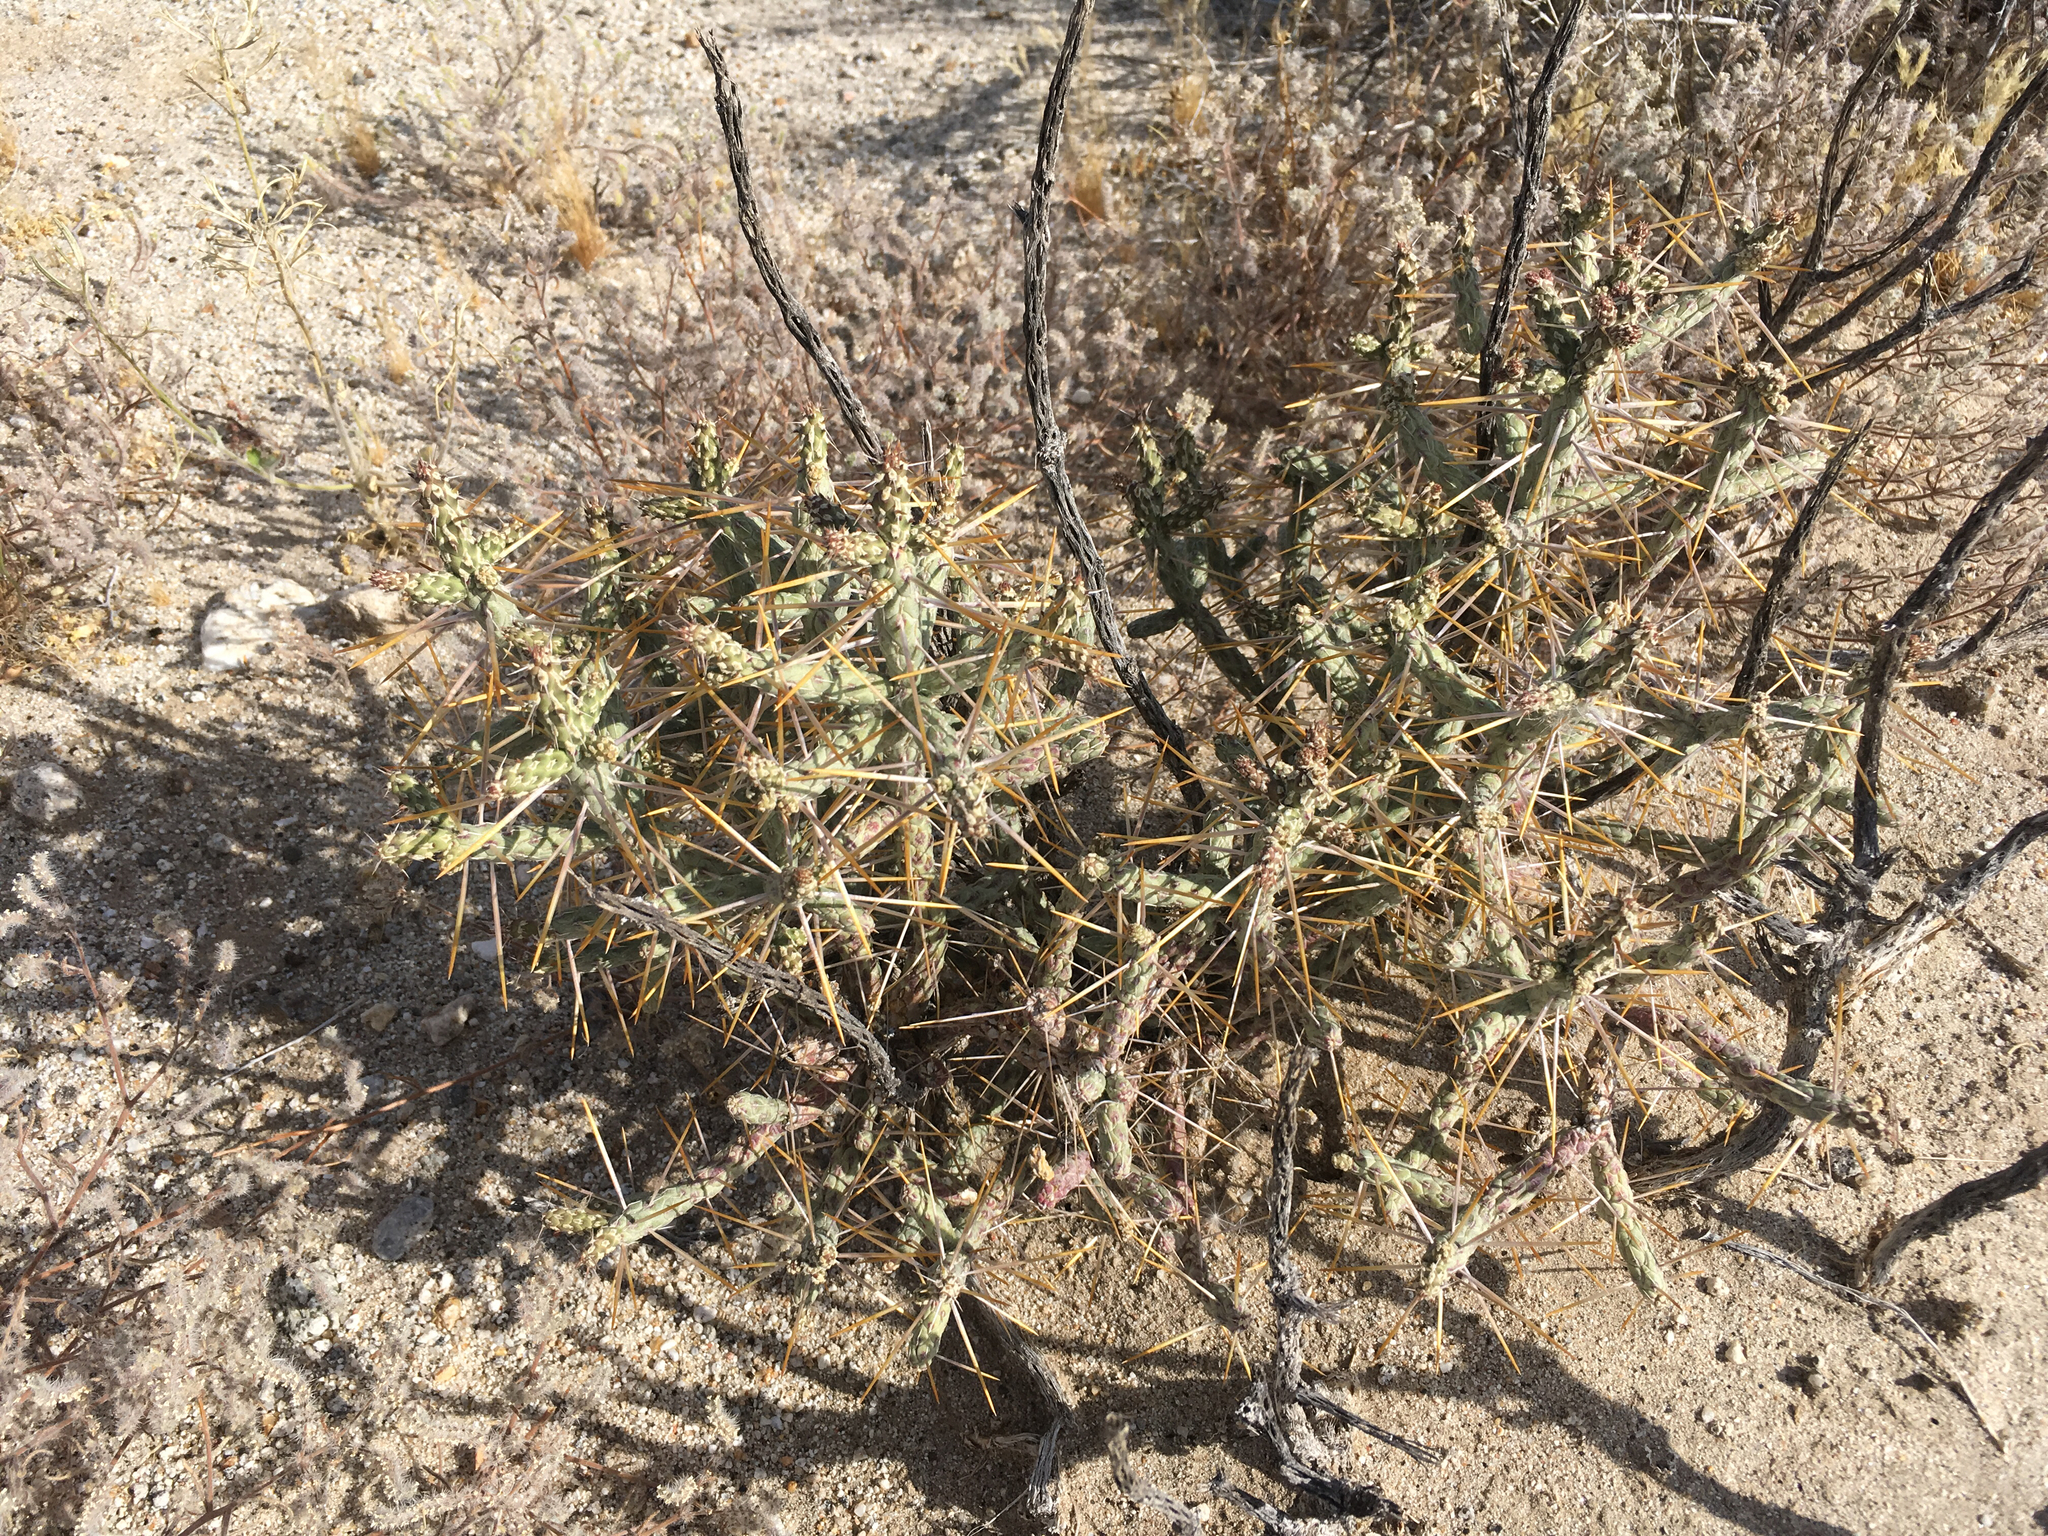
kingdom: Plantae
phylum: Tracheophyta
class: Magnoliopsida
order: Caryophyllales
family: Cactaceae
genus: Cylindropuntia
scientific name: Cylindropuntia ramosissima
